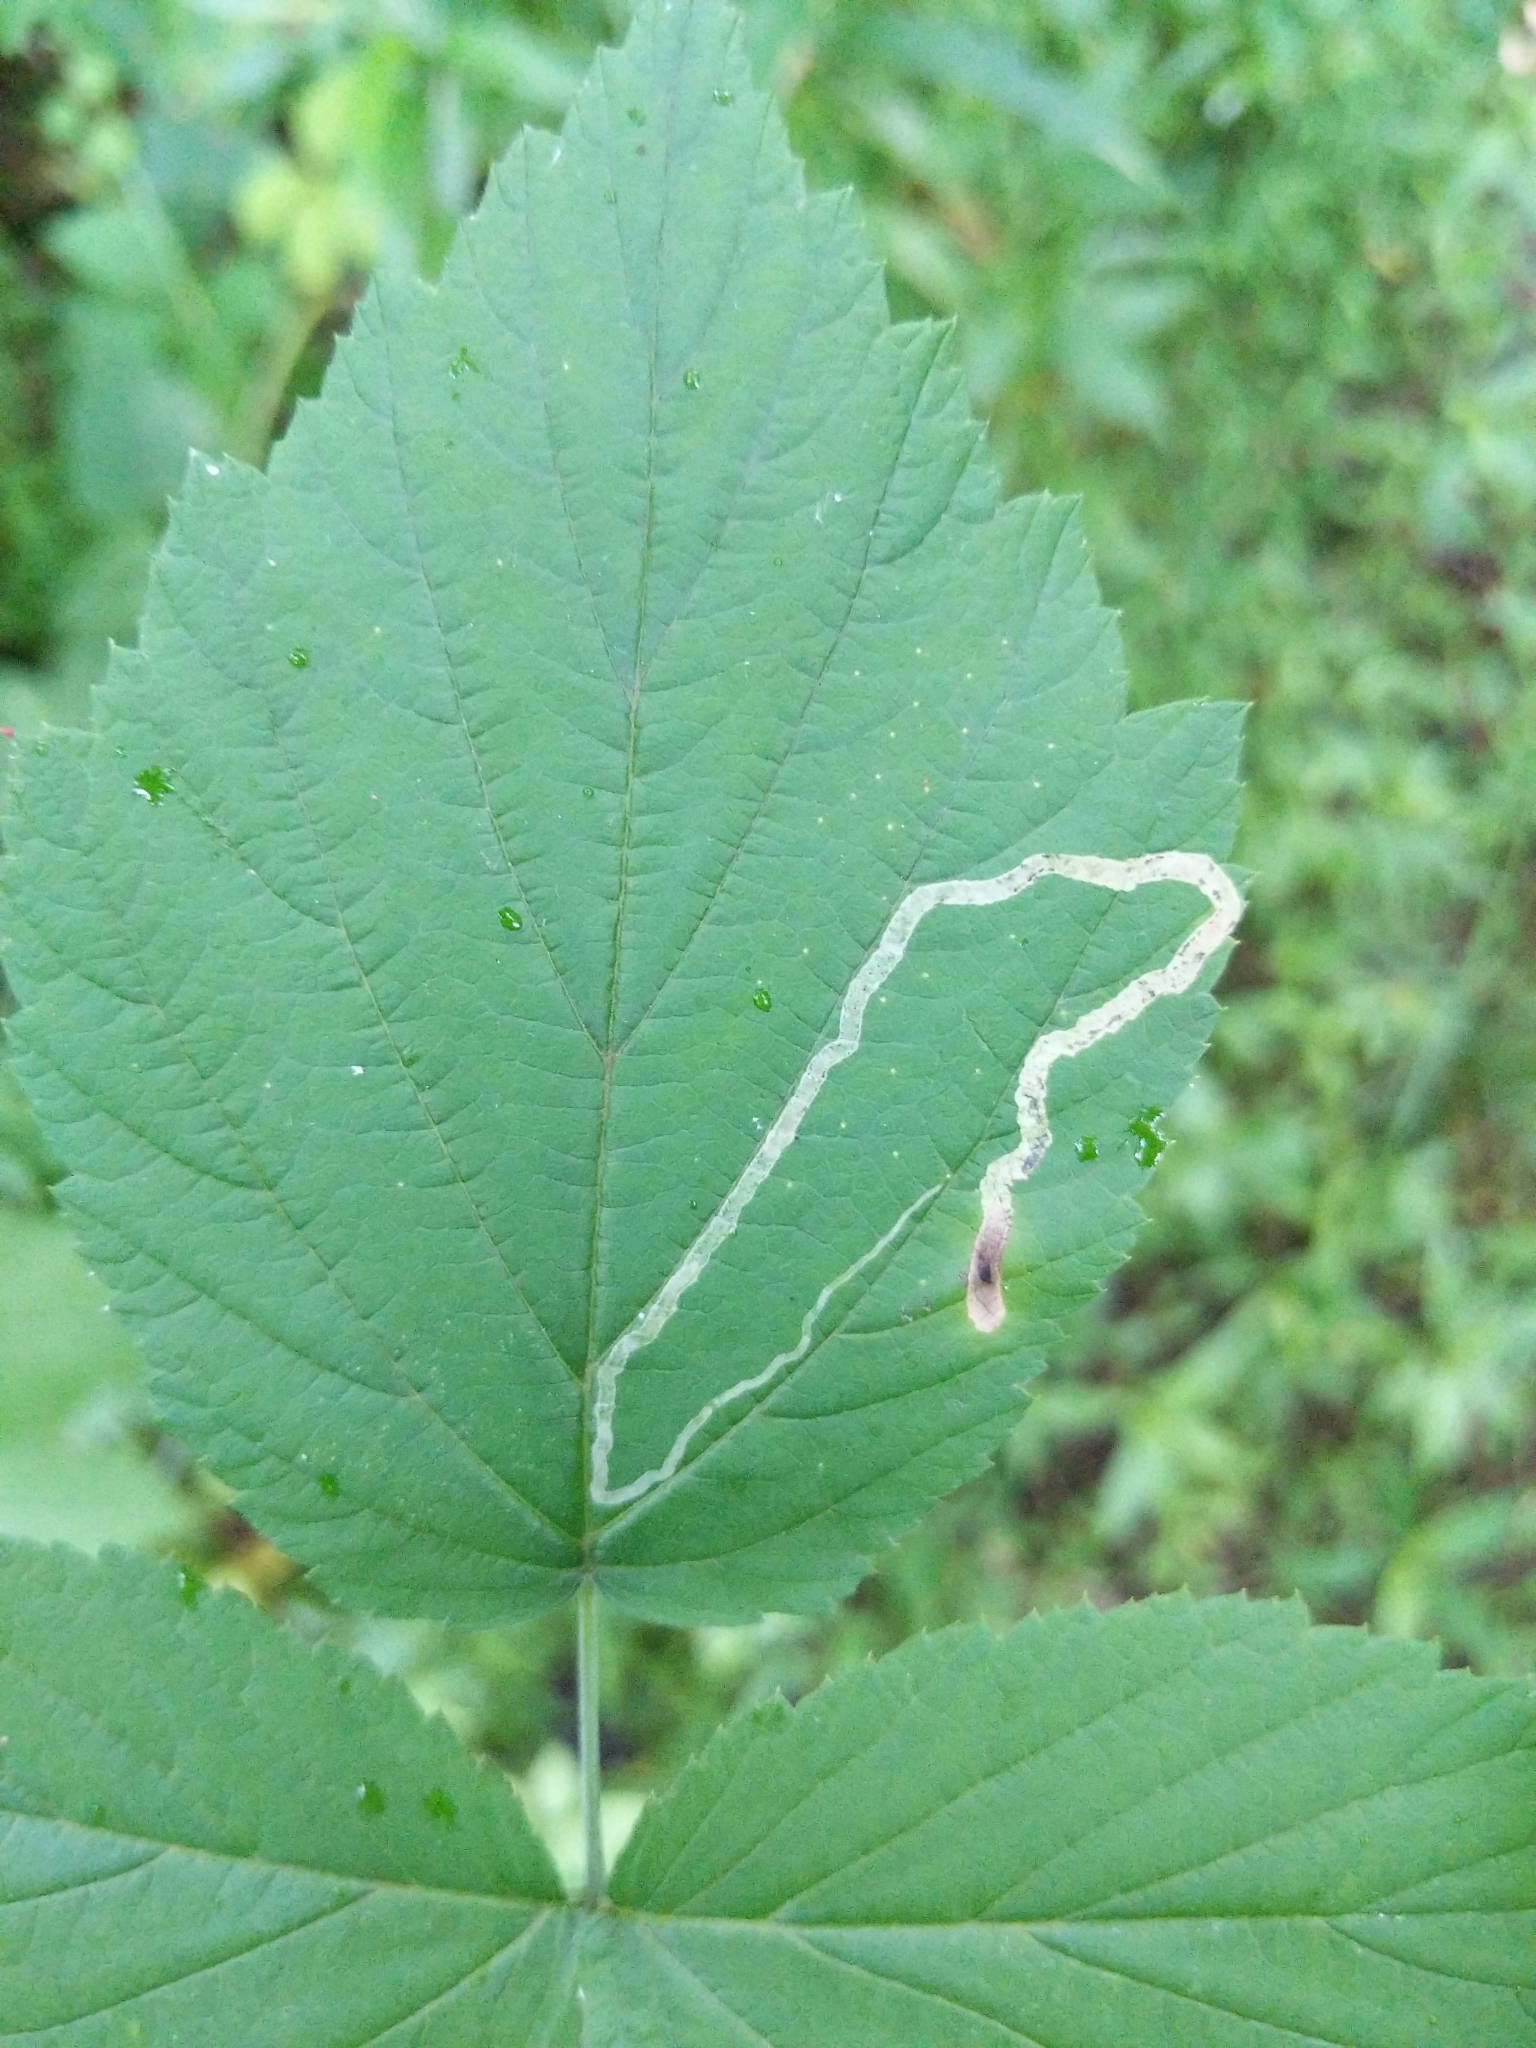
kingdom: Animalia
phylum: Arthropoda
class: Insecta
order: Diptera
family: Agromyzidae
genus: Agromyza
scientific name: Agromyza vockerothi
